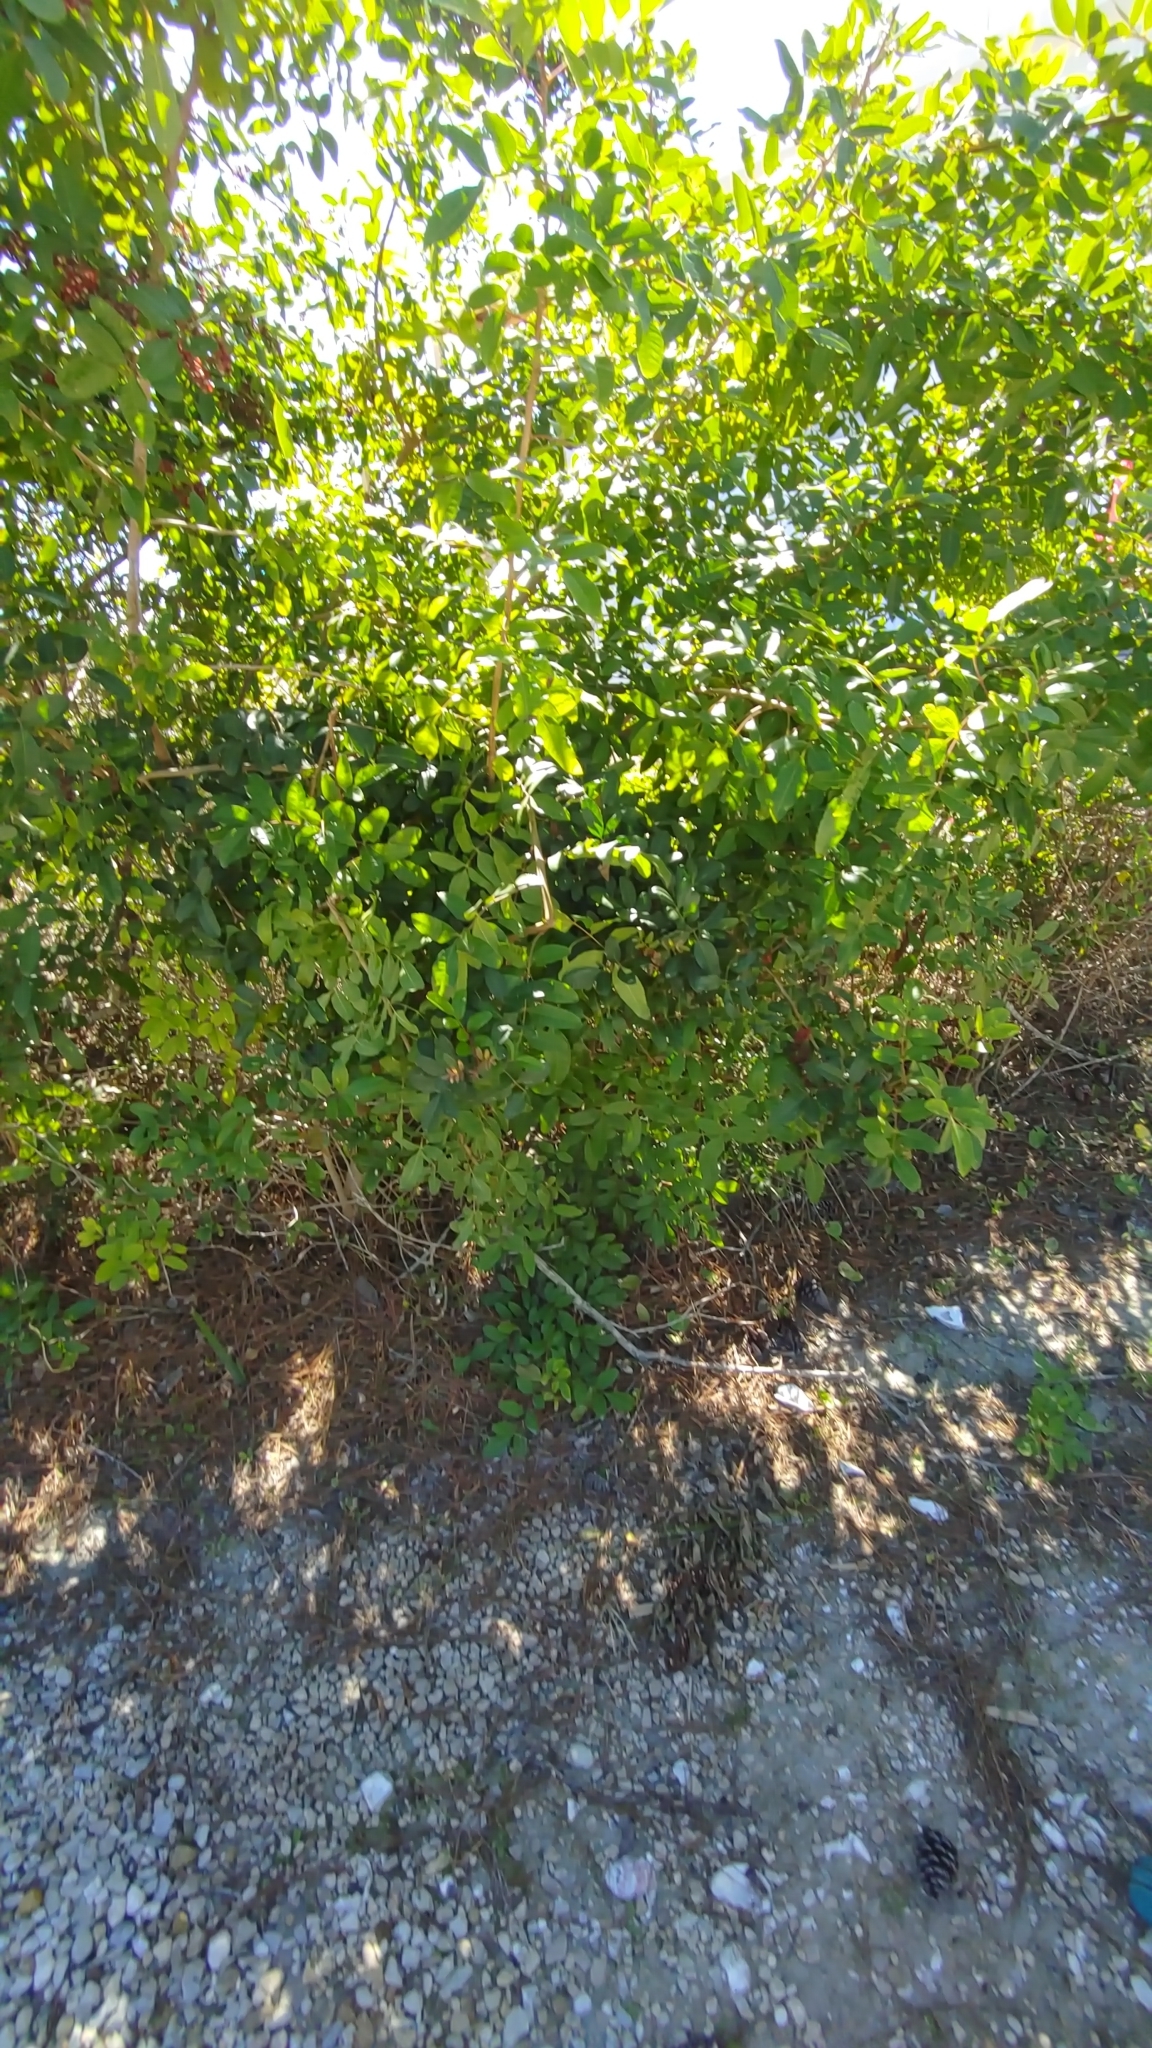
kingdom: Plantae
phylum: Tracheophyta
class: Magnoliopsida
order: Sapindales
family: Anacardiaceae
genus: Schinus
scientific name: Schinus terebinthifolia
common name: Brazilian peppertree
